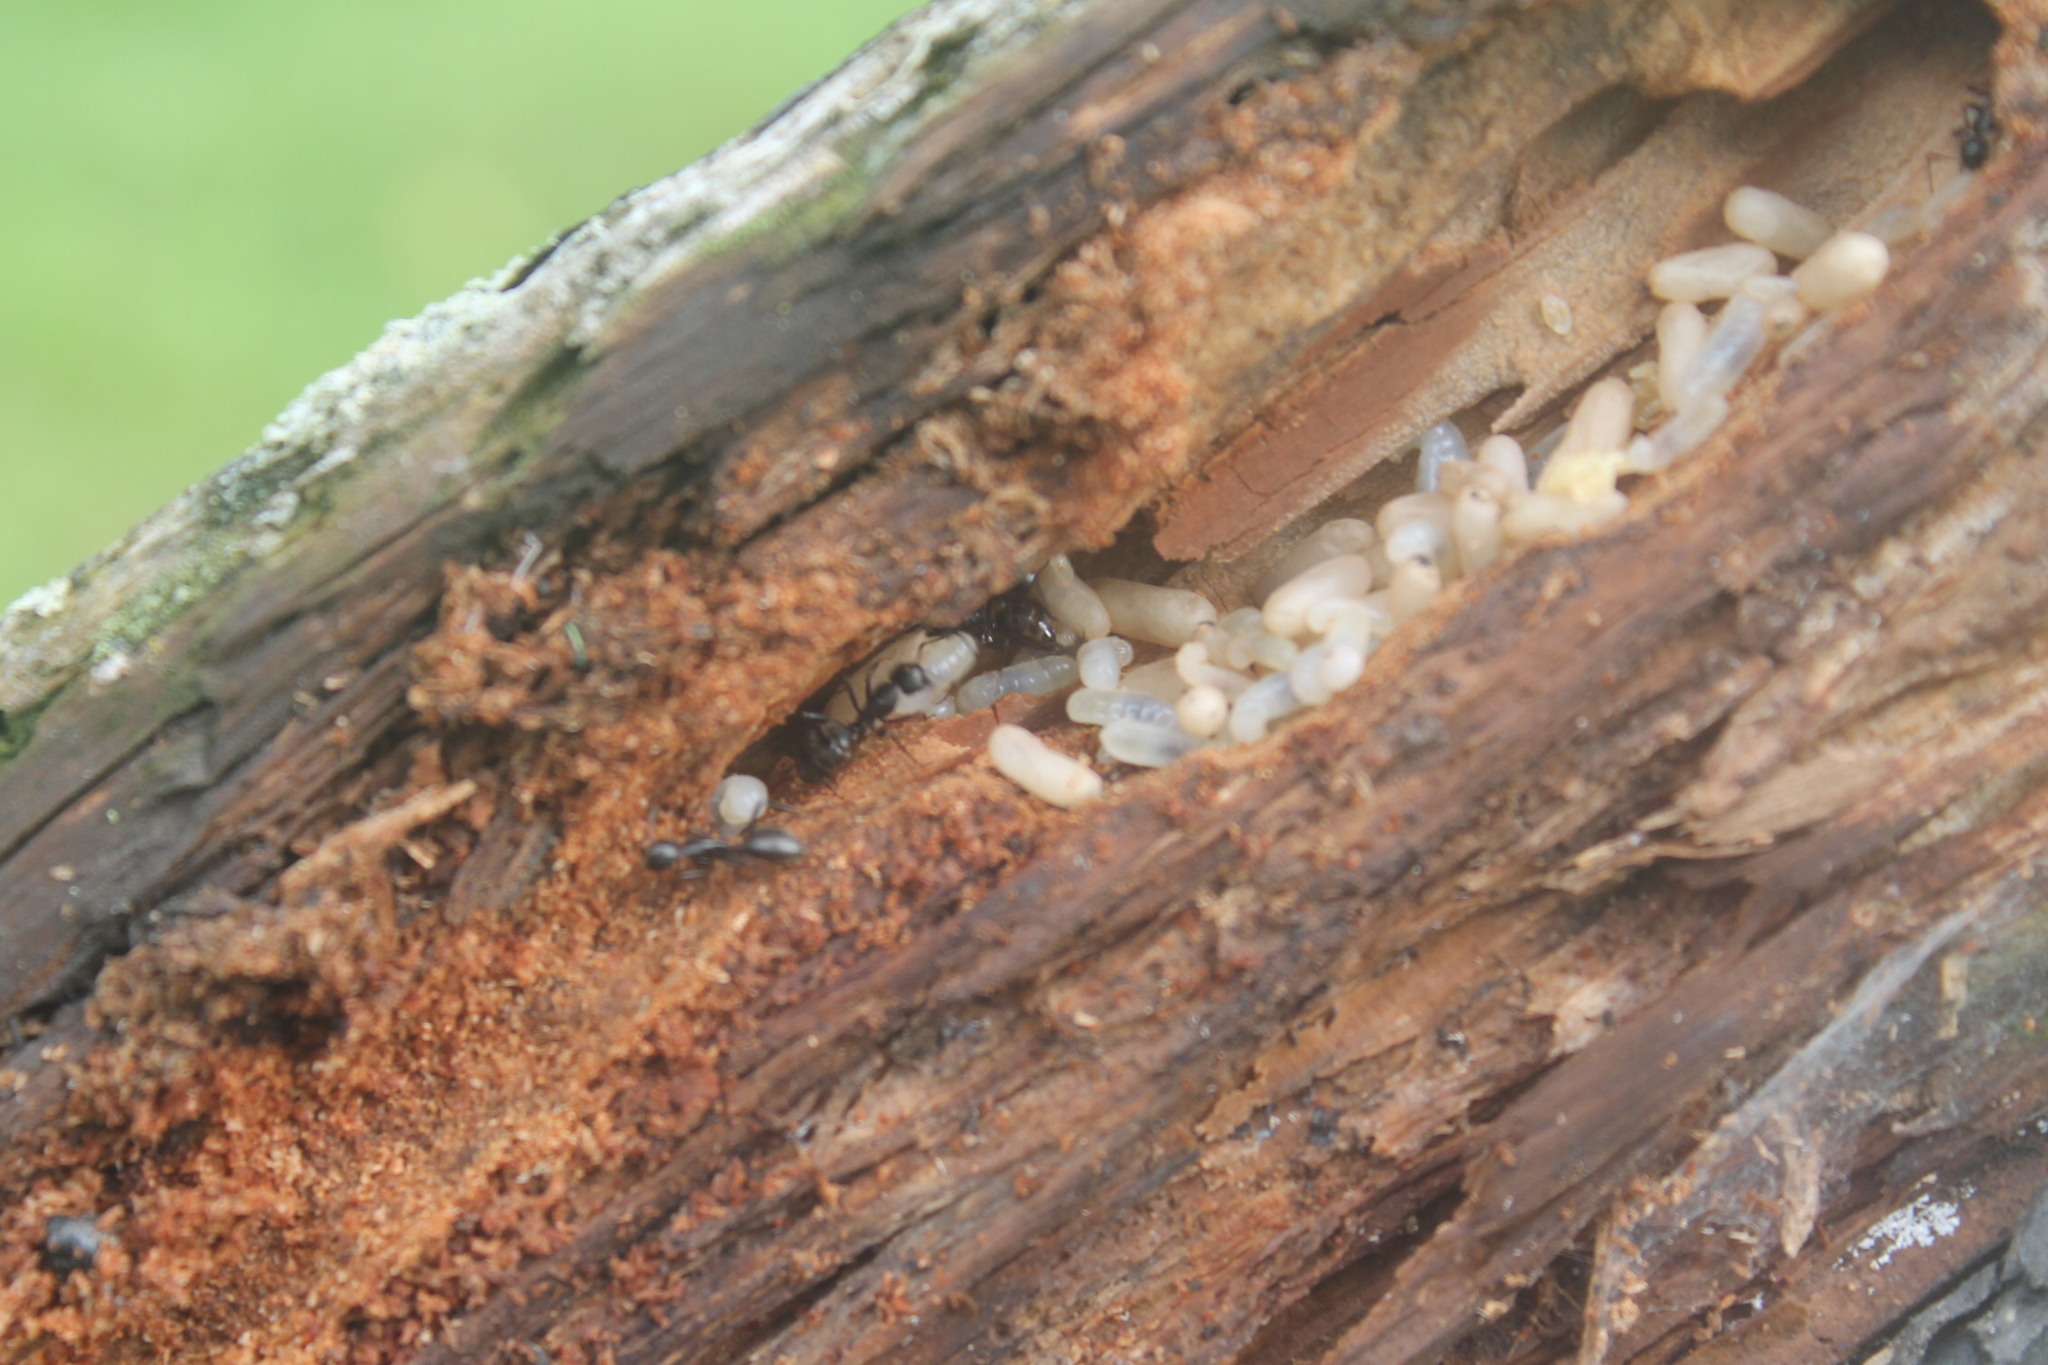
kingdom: Animalia
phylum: Arthropoda
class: Insecta
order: Hymenoptera
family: Formicidae
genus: Camponotus
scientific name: Camponotus pennsylvanicus
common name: Black carpenter ant
